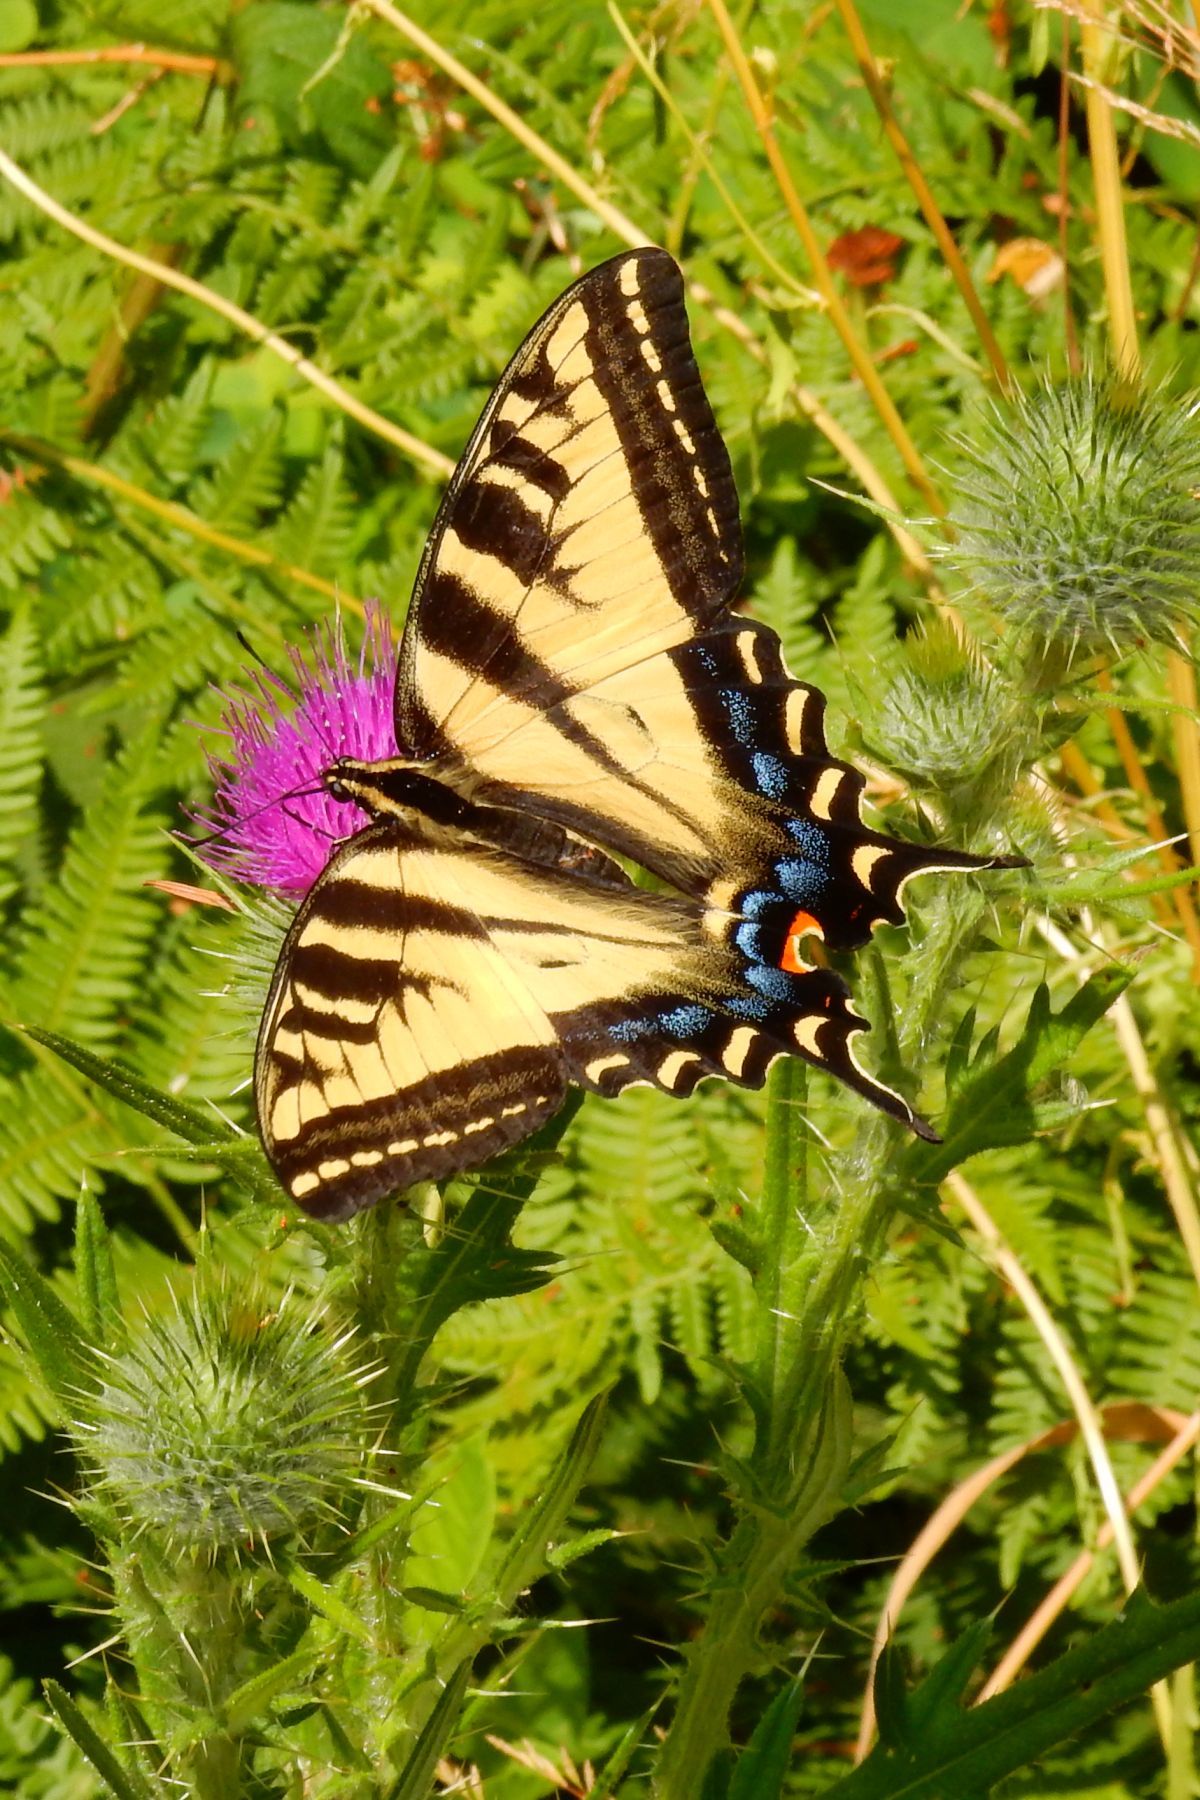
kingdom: Animalia
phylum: Arthropoda
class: Insecta
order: Lepidoptera
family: Papilionidae
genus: Papilio
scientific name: Papilio rutulus
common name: Western tiger swallowtail
